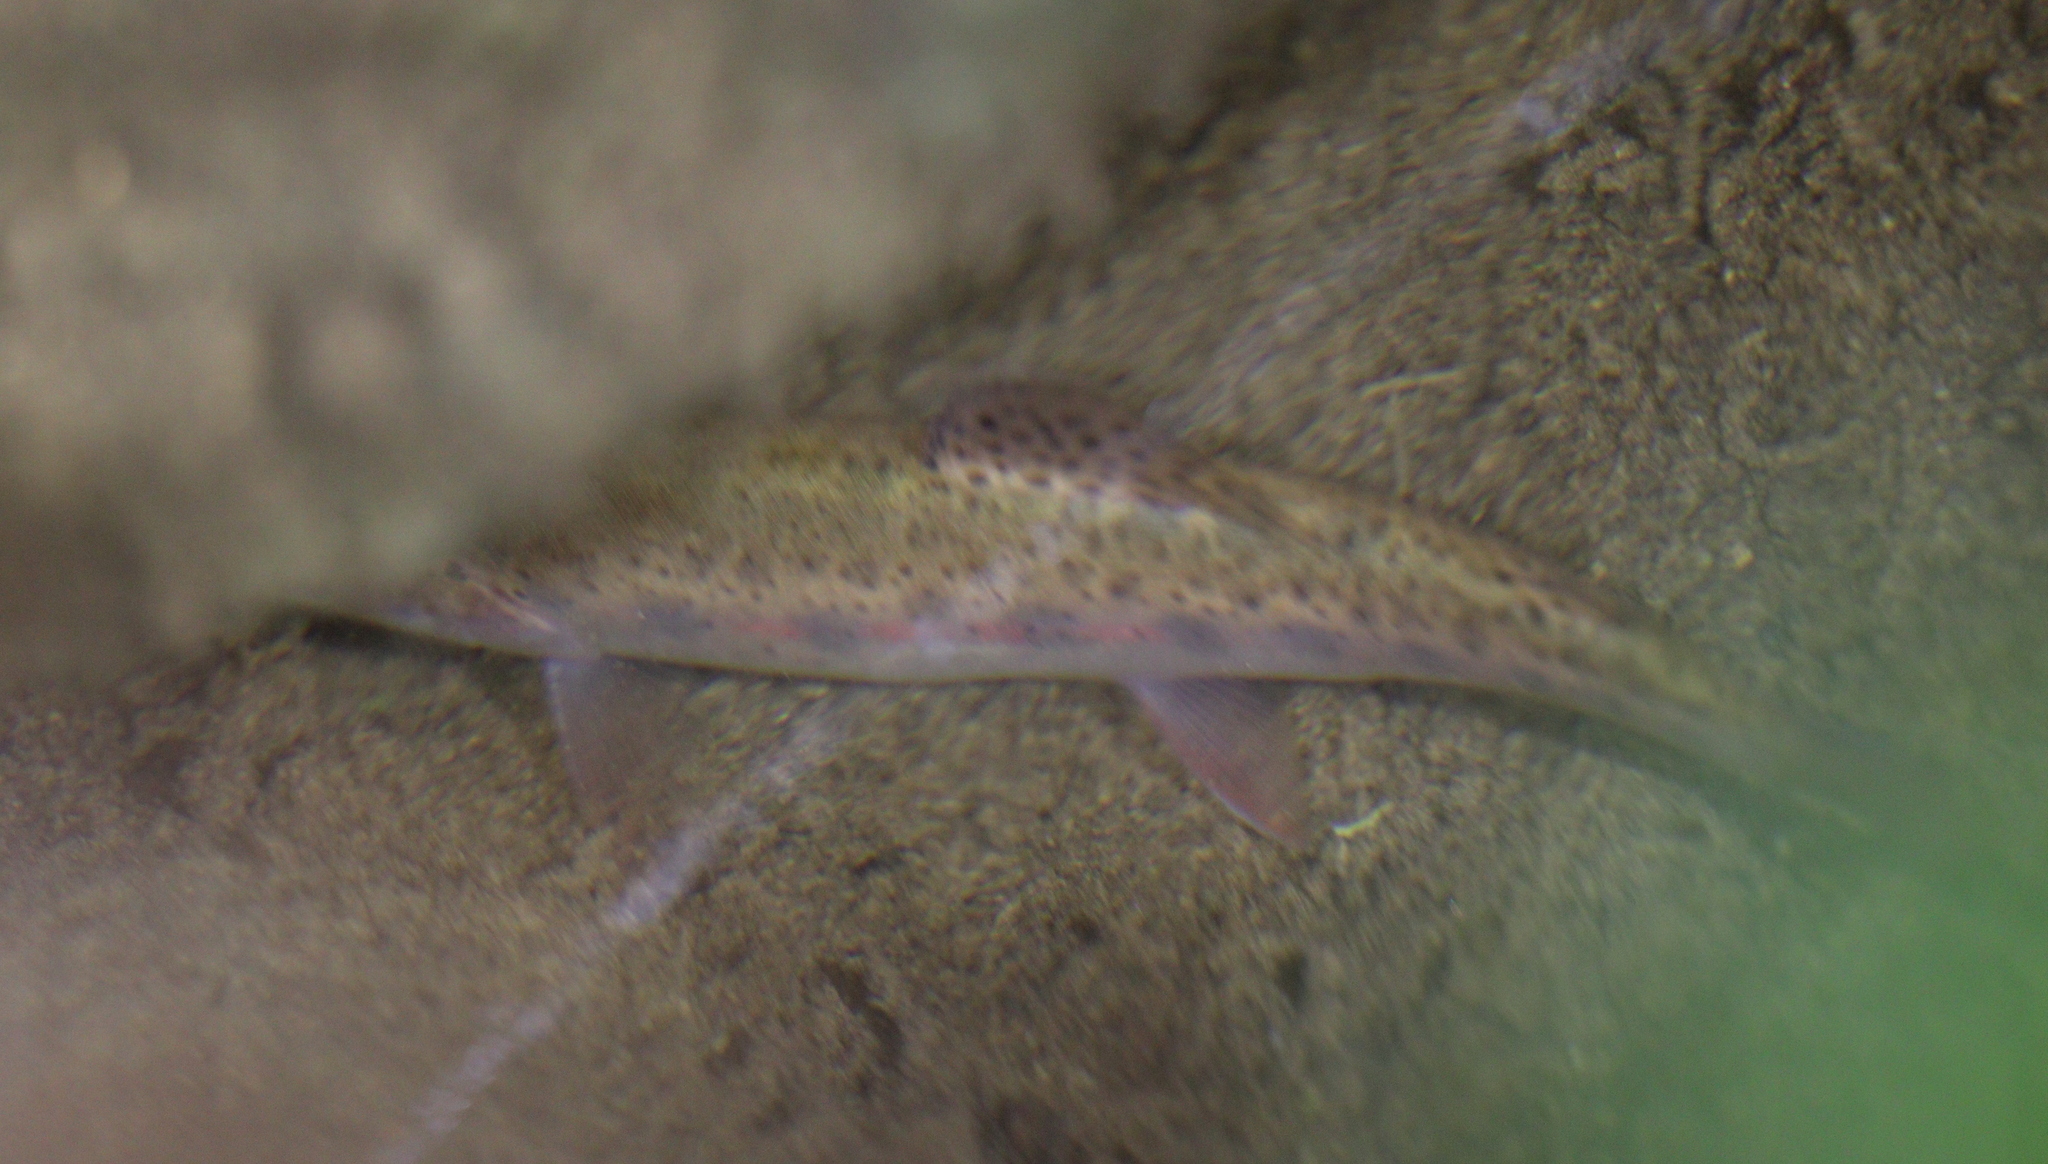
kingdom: Animalia
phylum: Chordata
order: Salmoniformes
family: Salmonidae
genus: Oncorhynchus
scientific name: Oncorhynchus mykiss
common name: Rainbow trout
